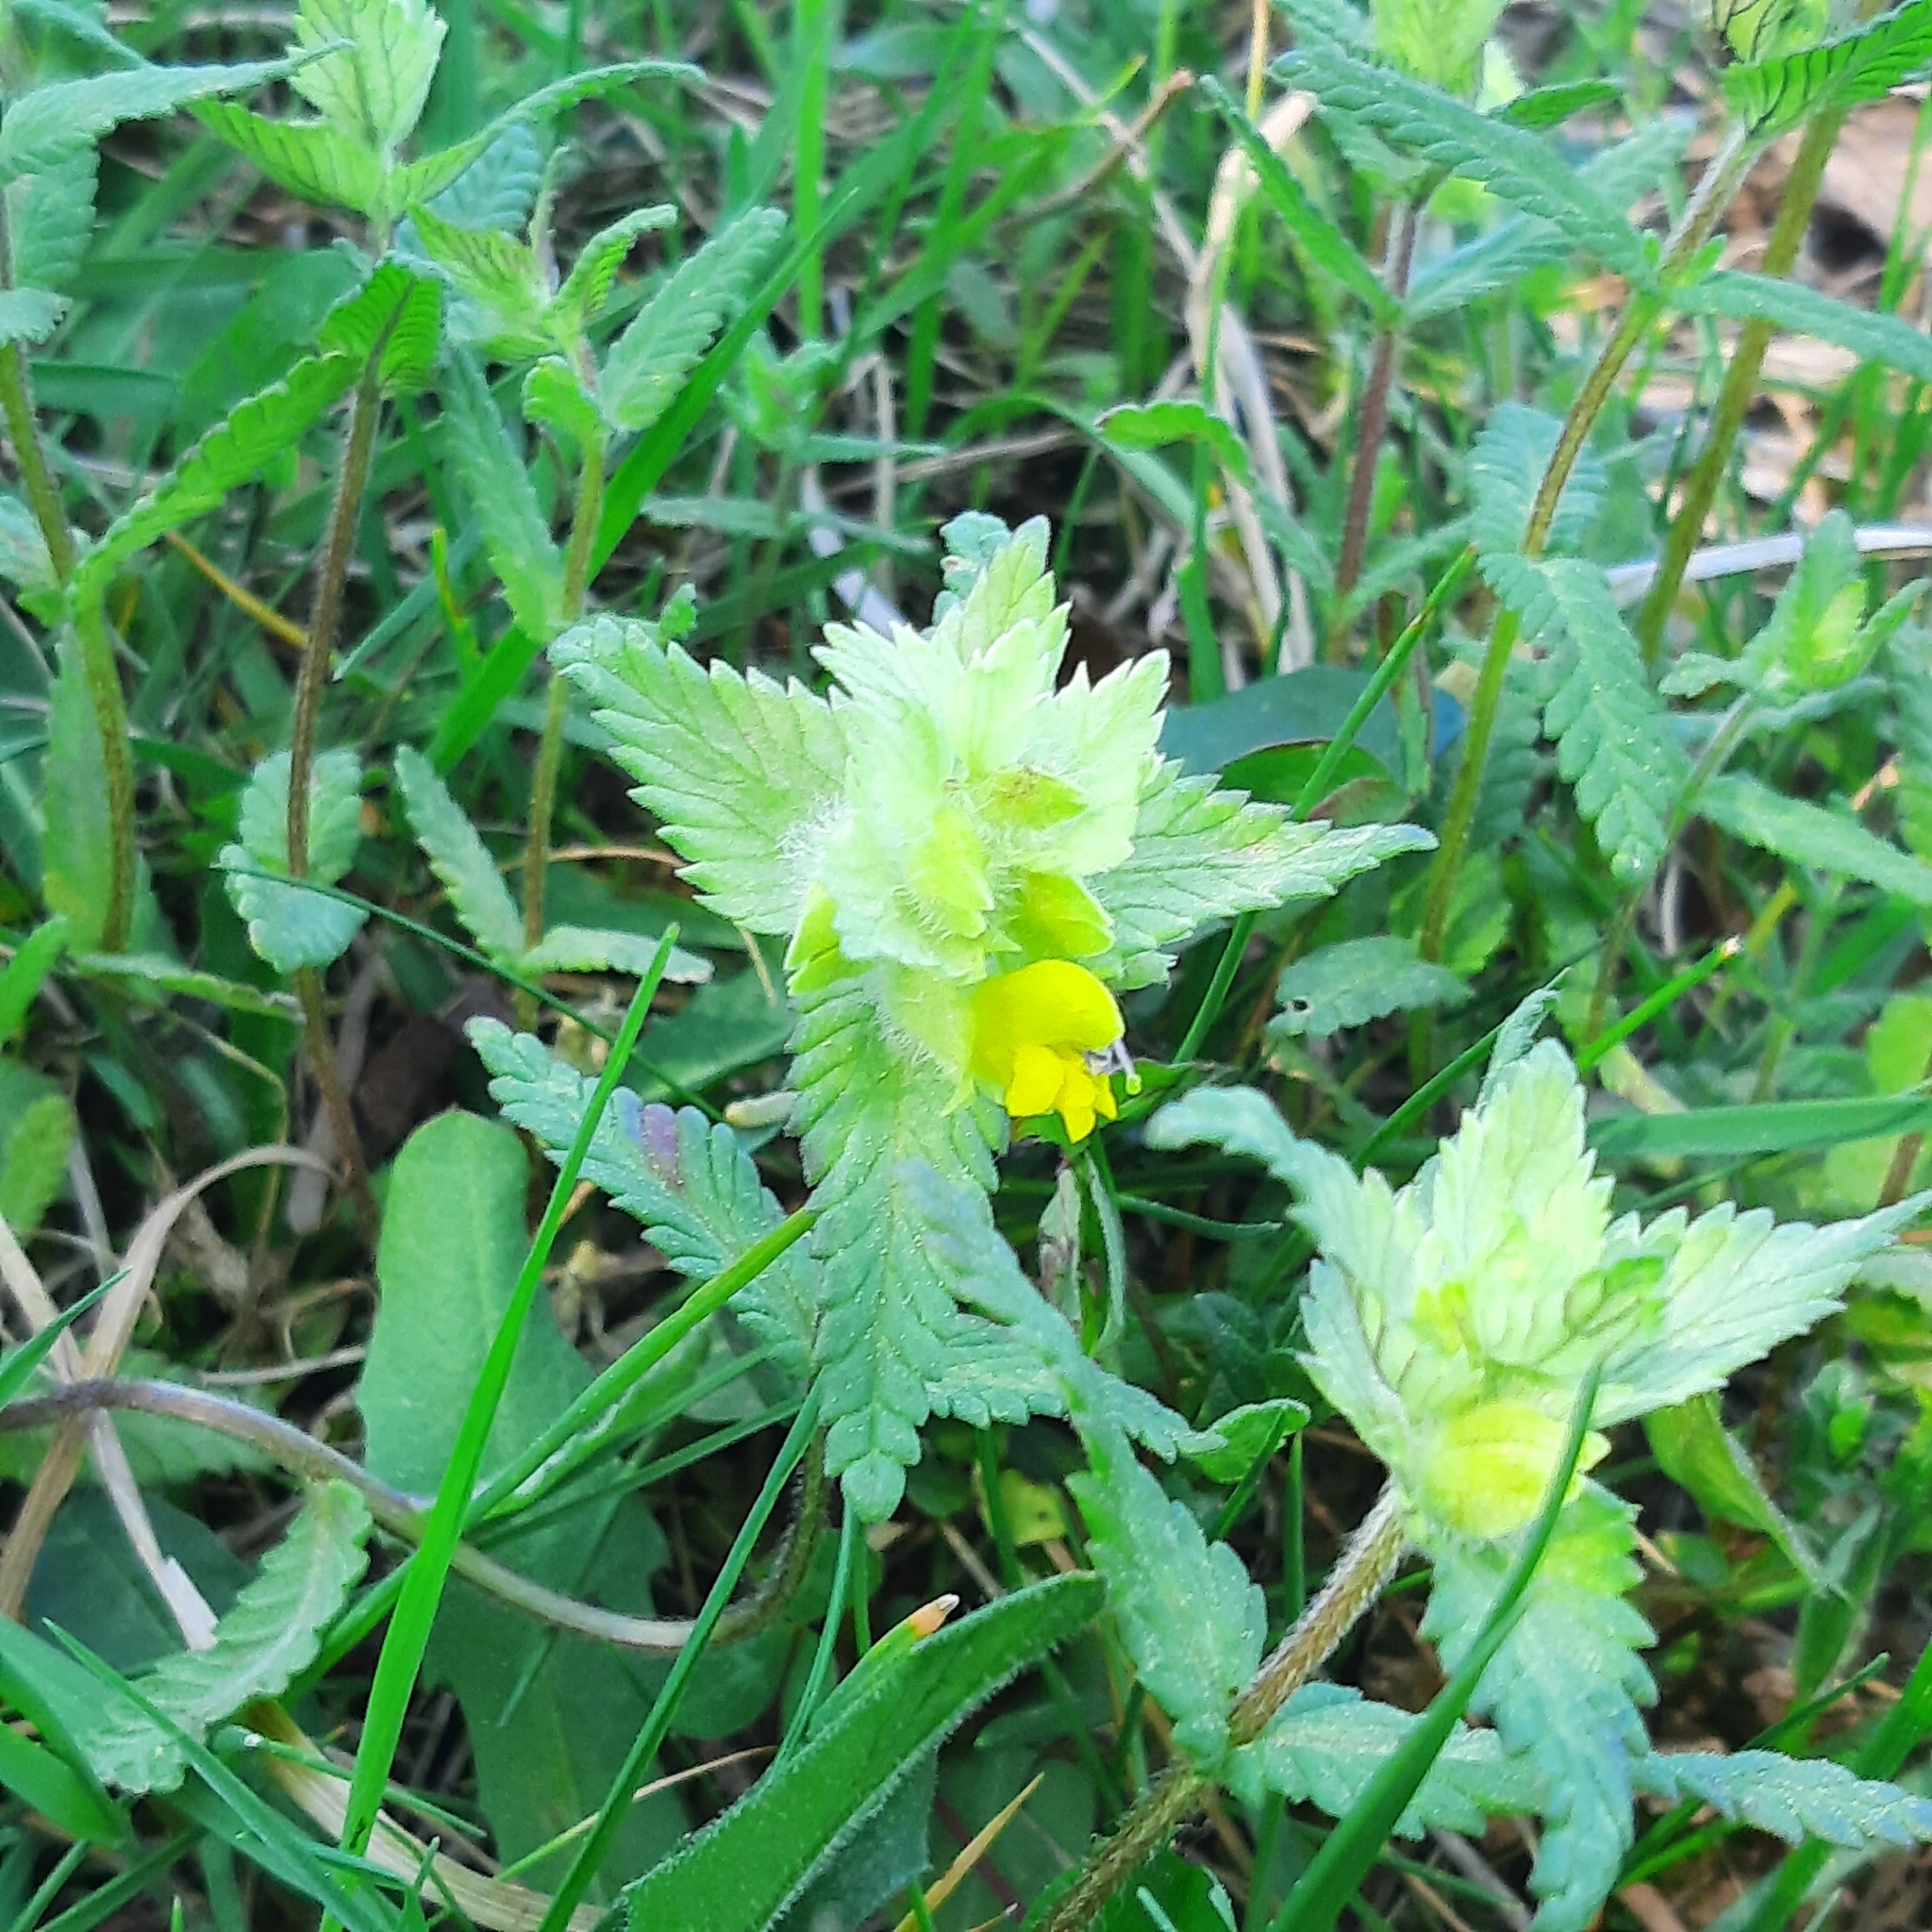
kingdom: Plantae
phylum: Tracheophyta
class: Magnoliopsida
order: Lamiales
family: Orobanchaceae
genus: Rhinanthus
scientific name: Rhinanthus alectorolophus
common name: Greater yellow-rattle
